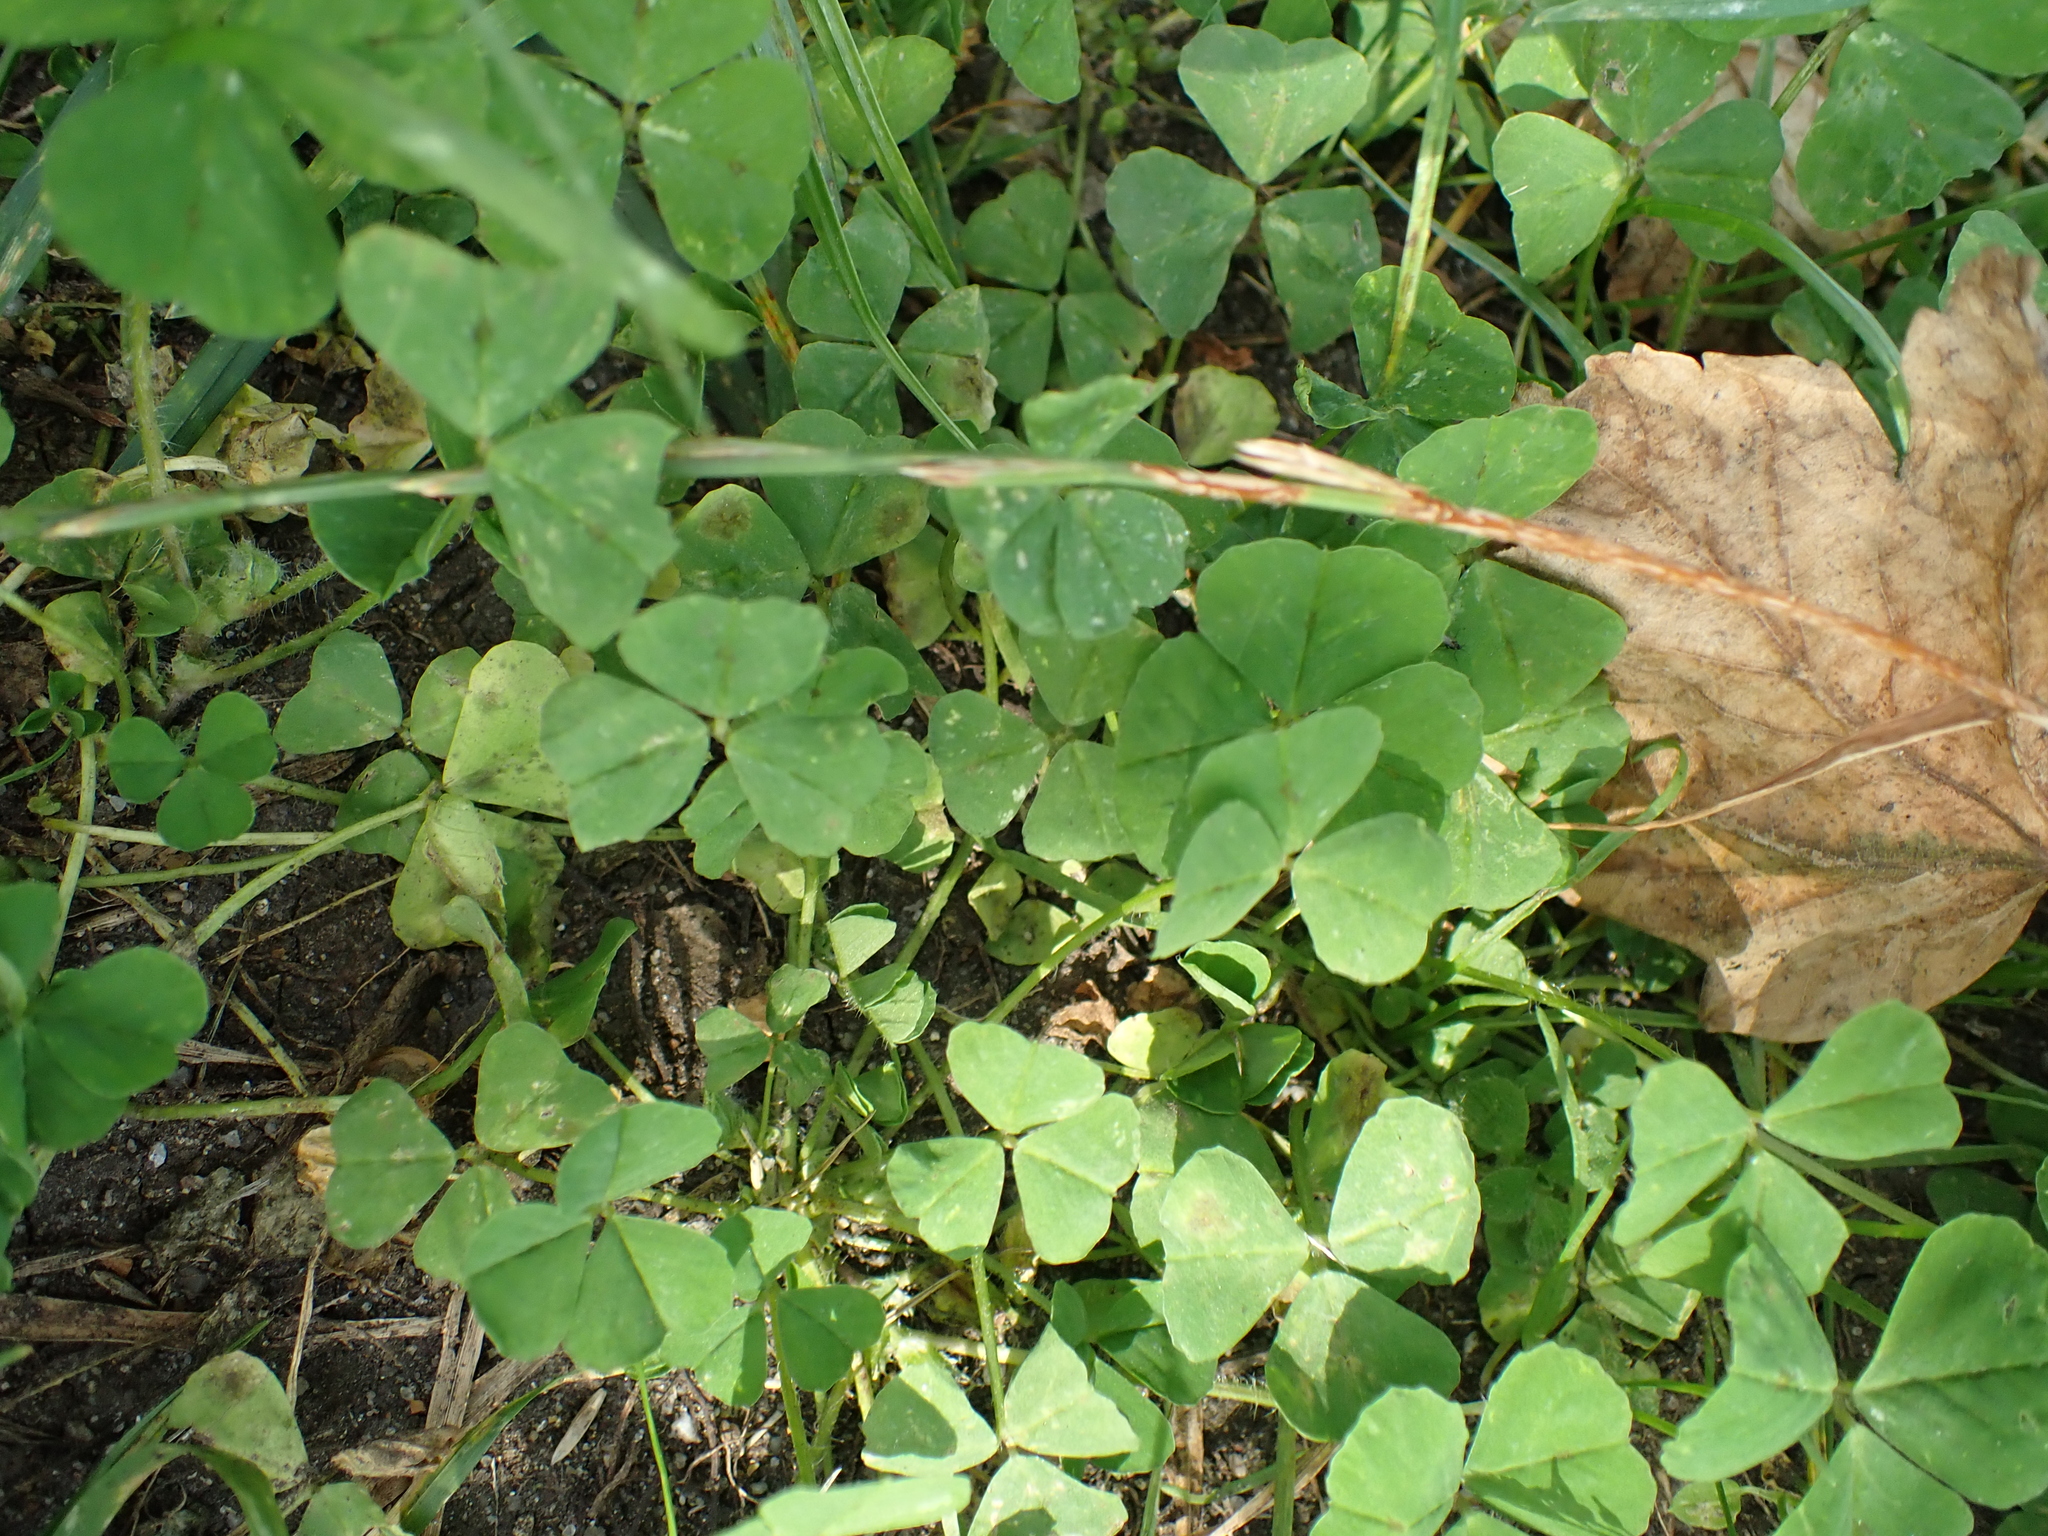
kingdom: Plantae
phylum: Tracheophyta
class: Magnoliopsida
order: Fabales
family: Fabaceae
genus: Medicago
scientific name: Medicago arabica
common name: Spotted medick
